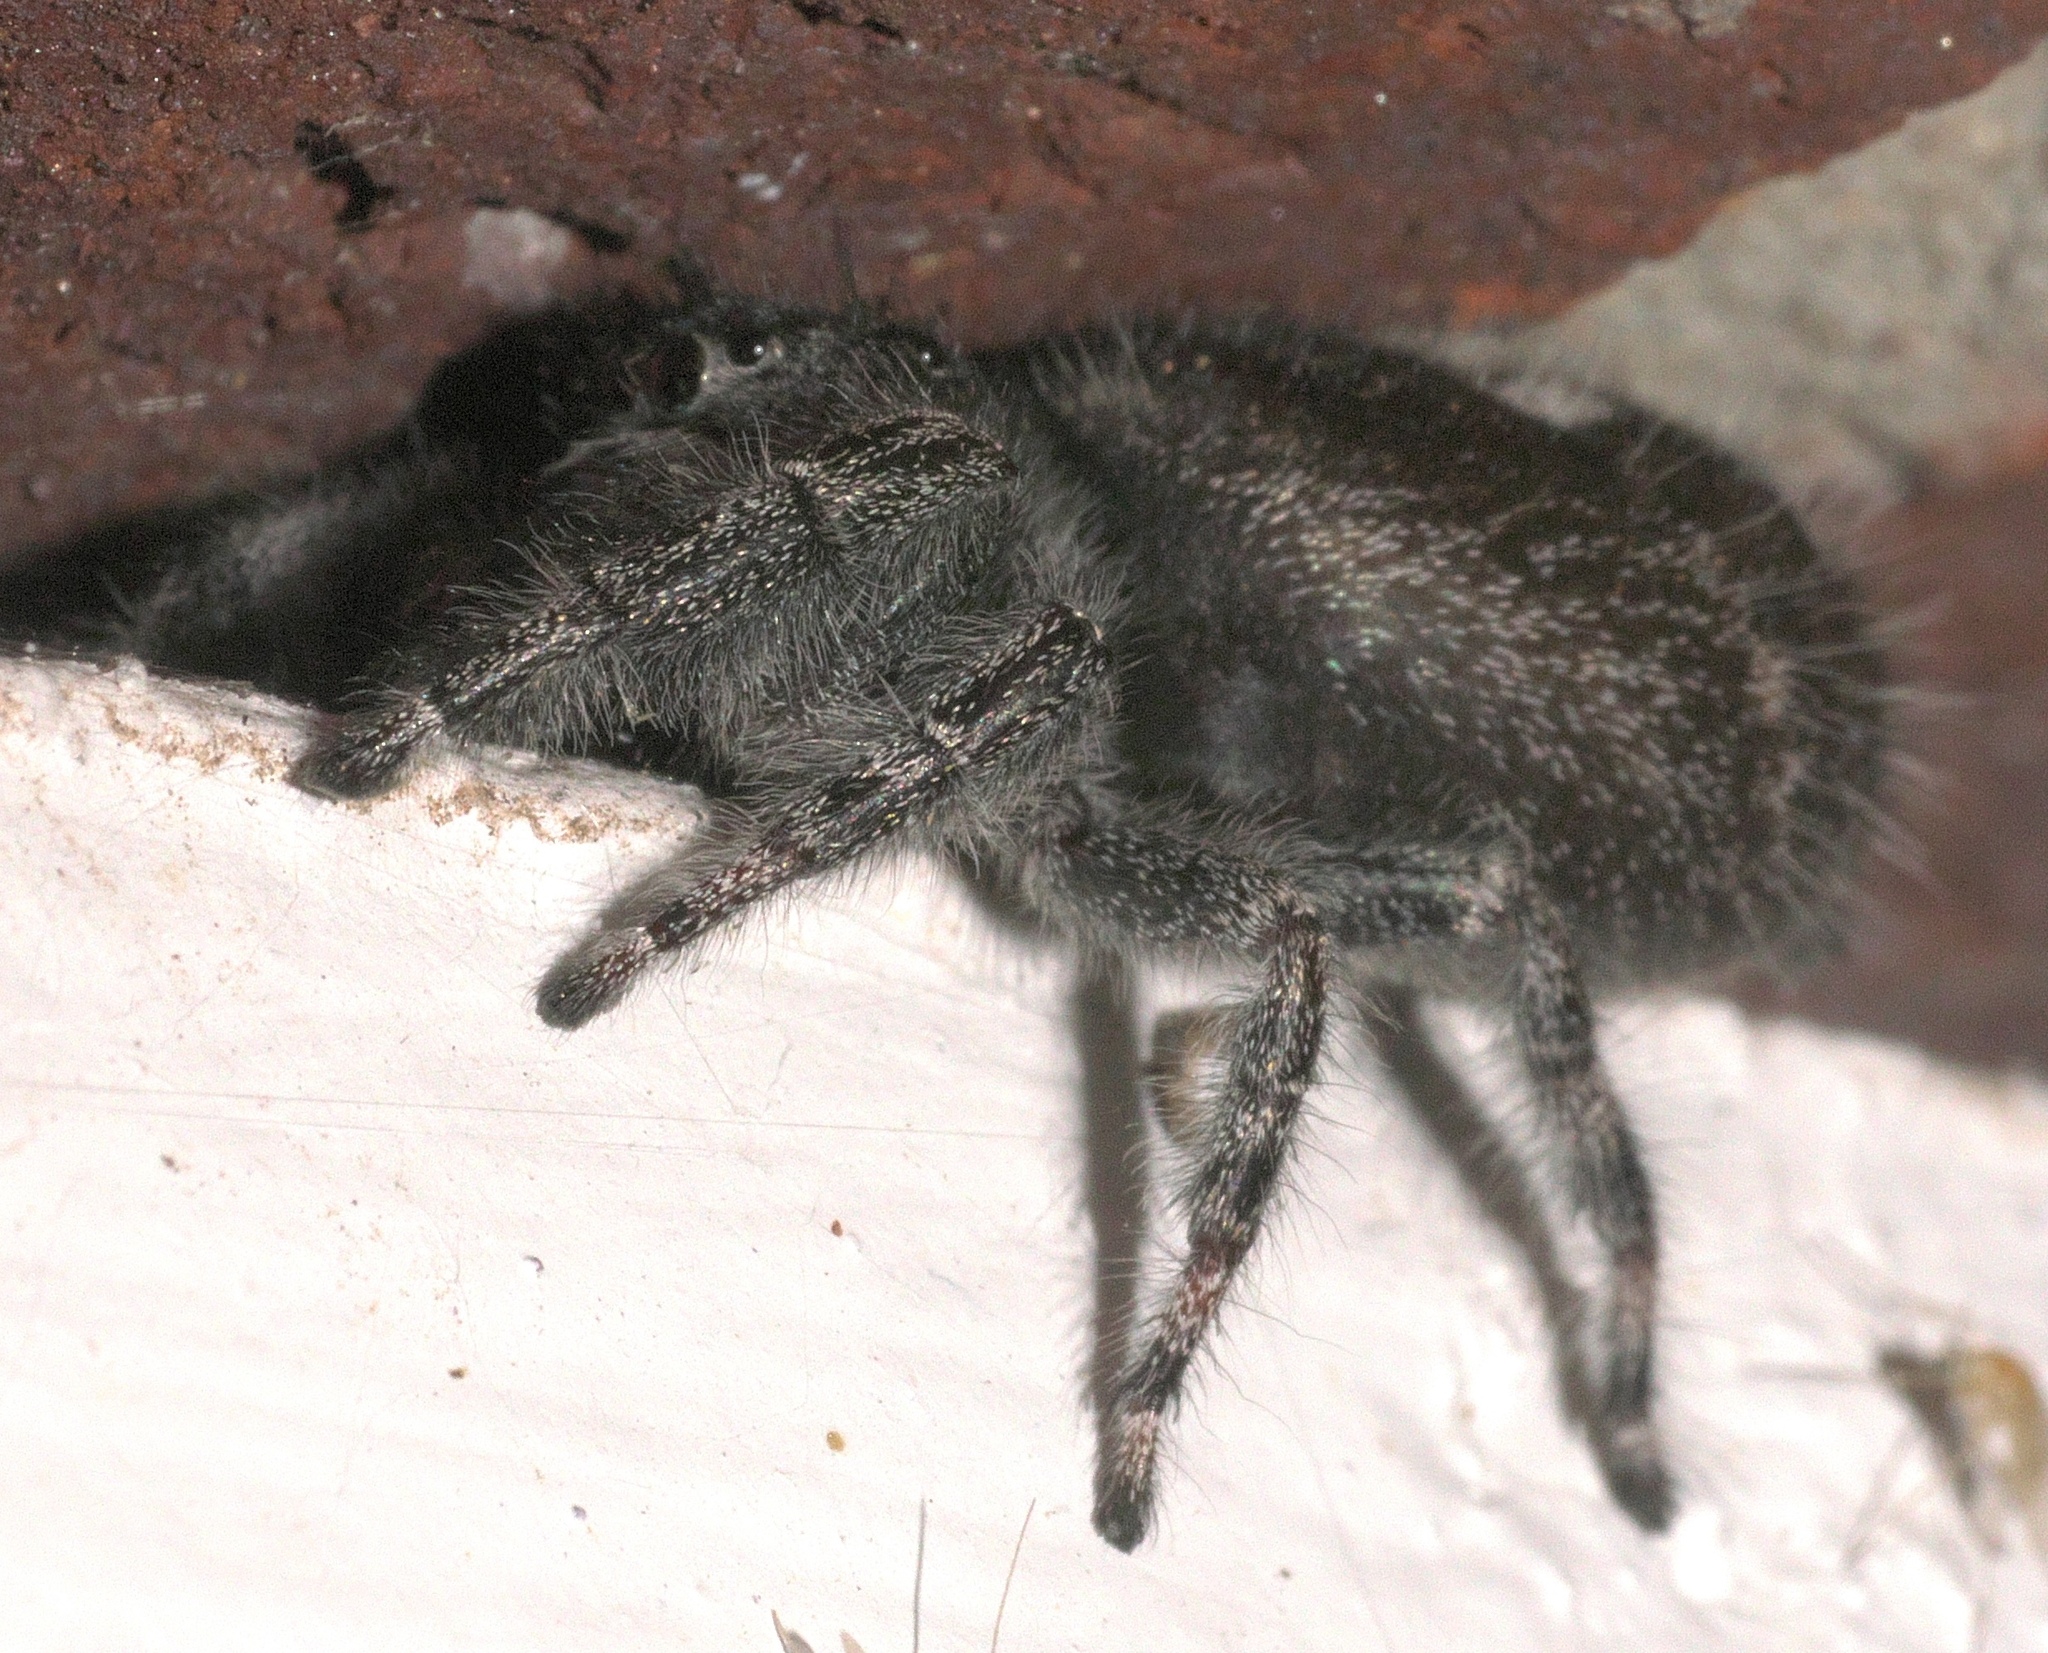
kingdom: Animalia
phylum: Arthropoda
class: Arachnida
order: Araneae
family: Salticidae
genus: Phidippus
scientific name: Phidippus audax
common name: Bold jumper
